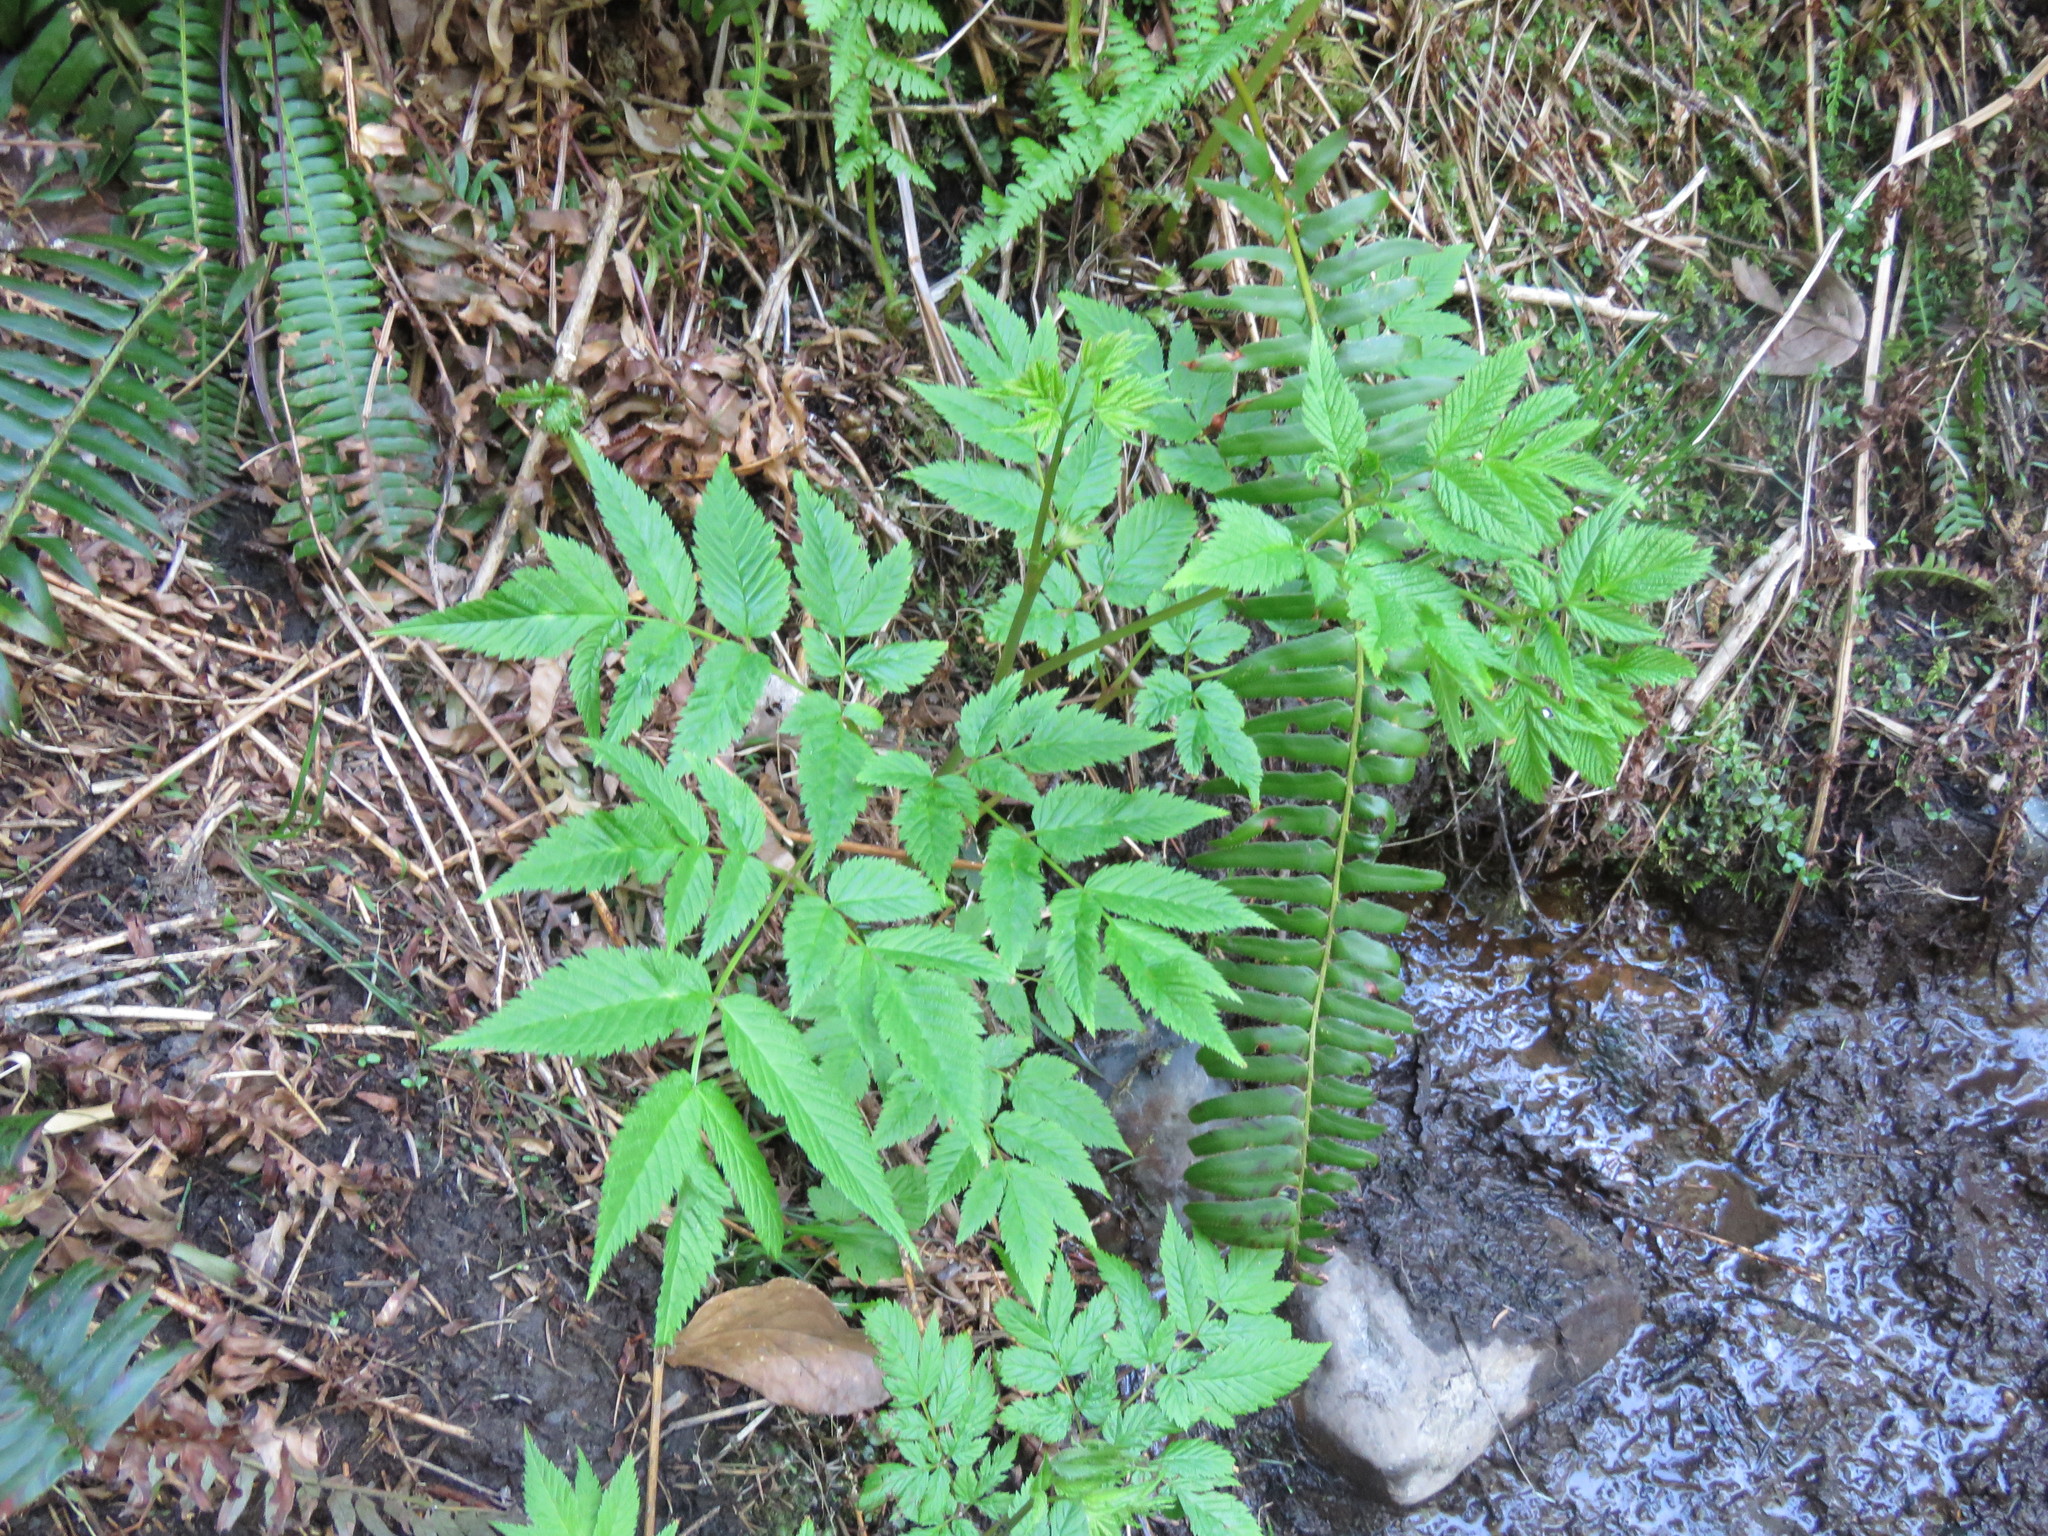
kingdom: Plantae
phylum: Tracheophyta
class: Magnoliopsida
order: Rosales
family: Rosaceae
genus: Aruncus
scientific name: Aruncus dioicus
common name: Buck's-beard
